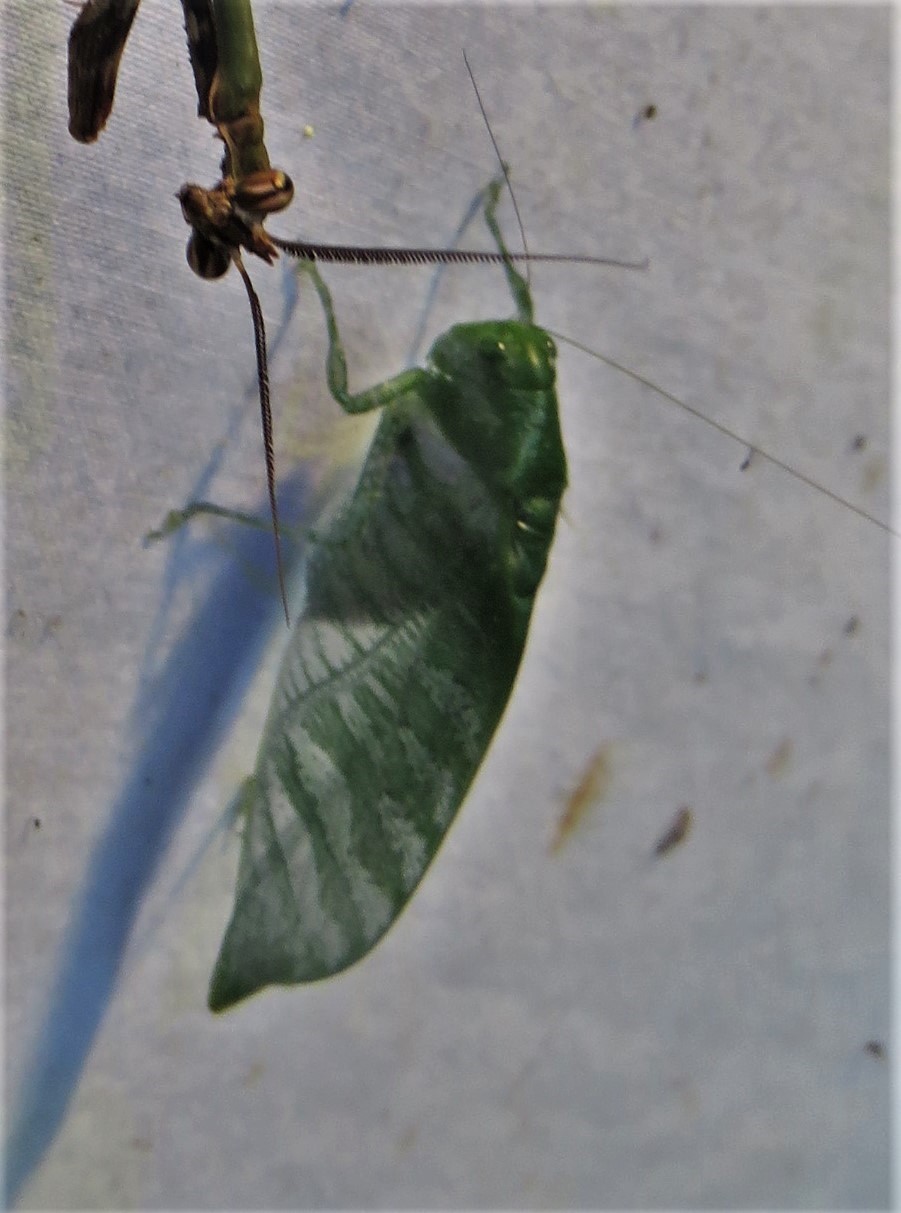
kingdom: Animalia
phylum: Arthropoda
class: Insecta
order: Orthoptera
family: Tettigoniidae
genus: Anapolisia
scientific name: Anapolisia colossea
